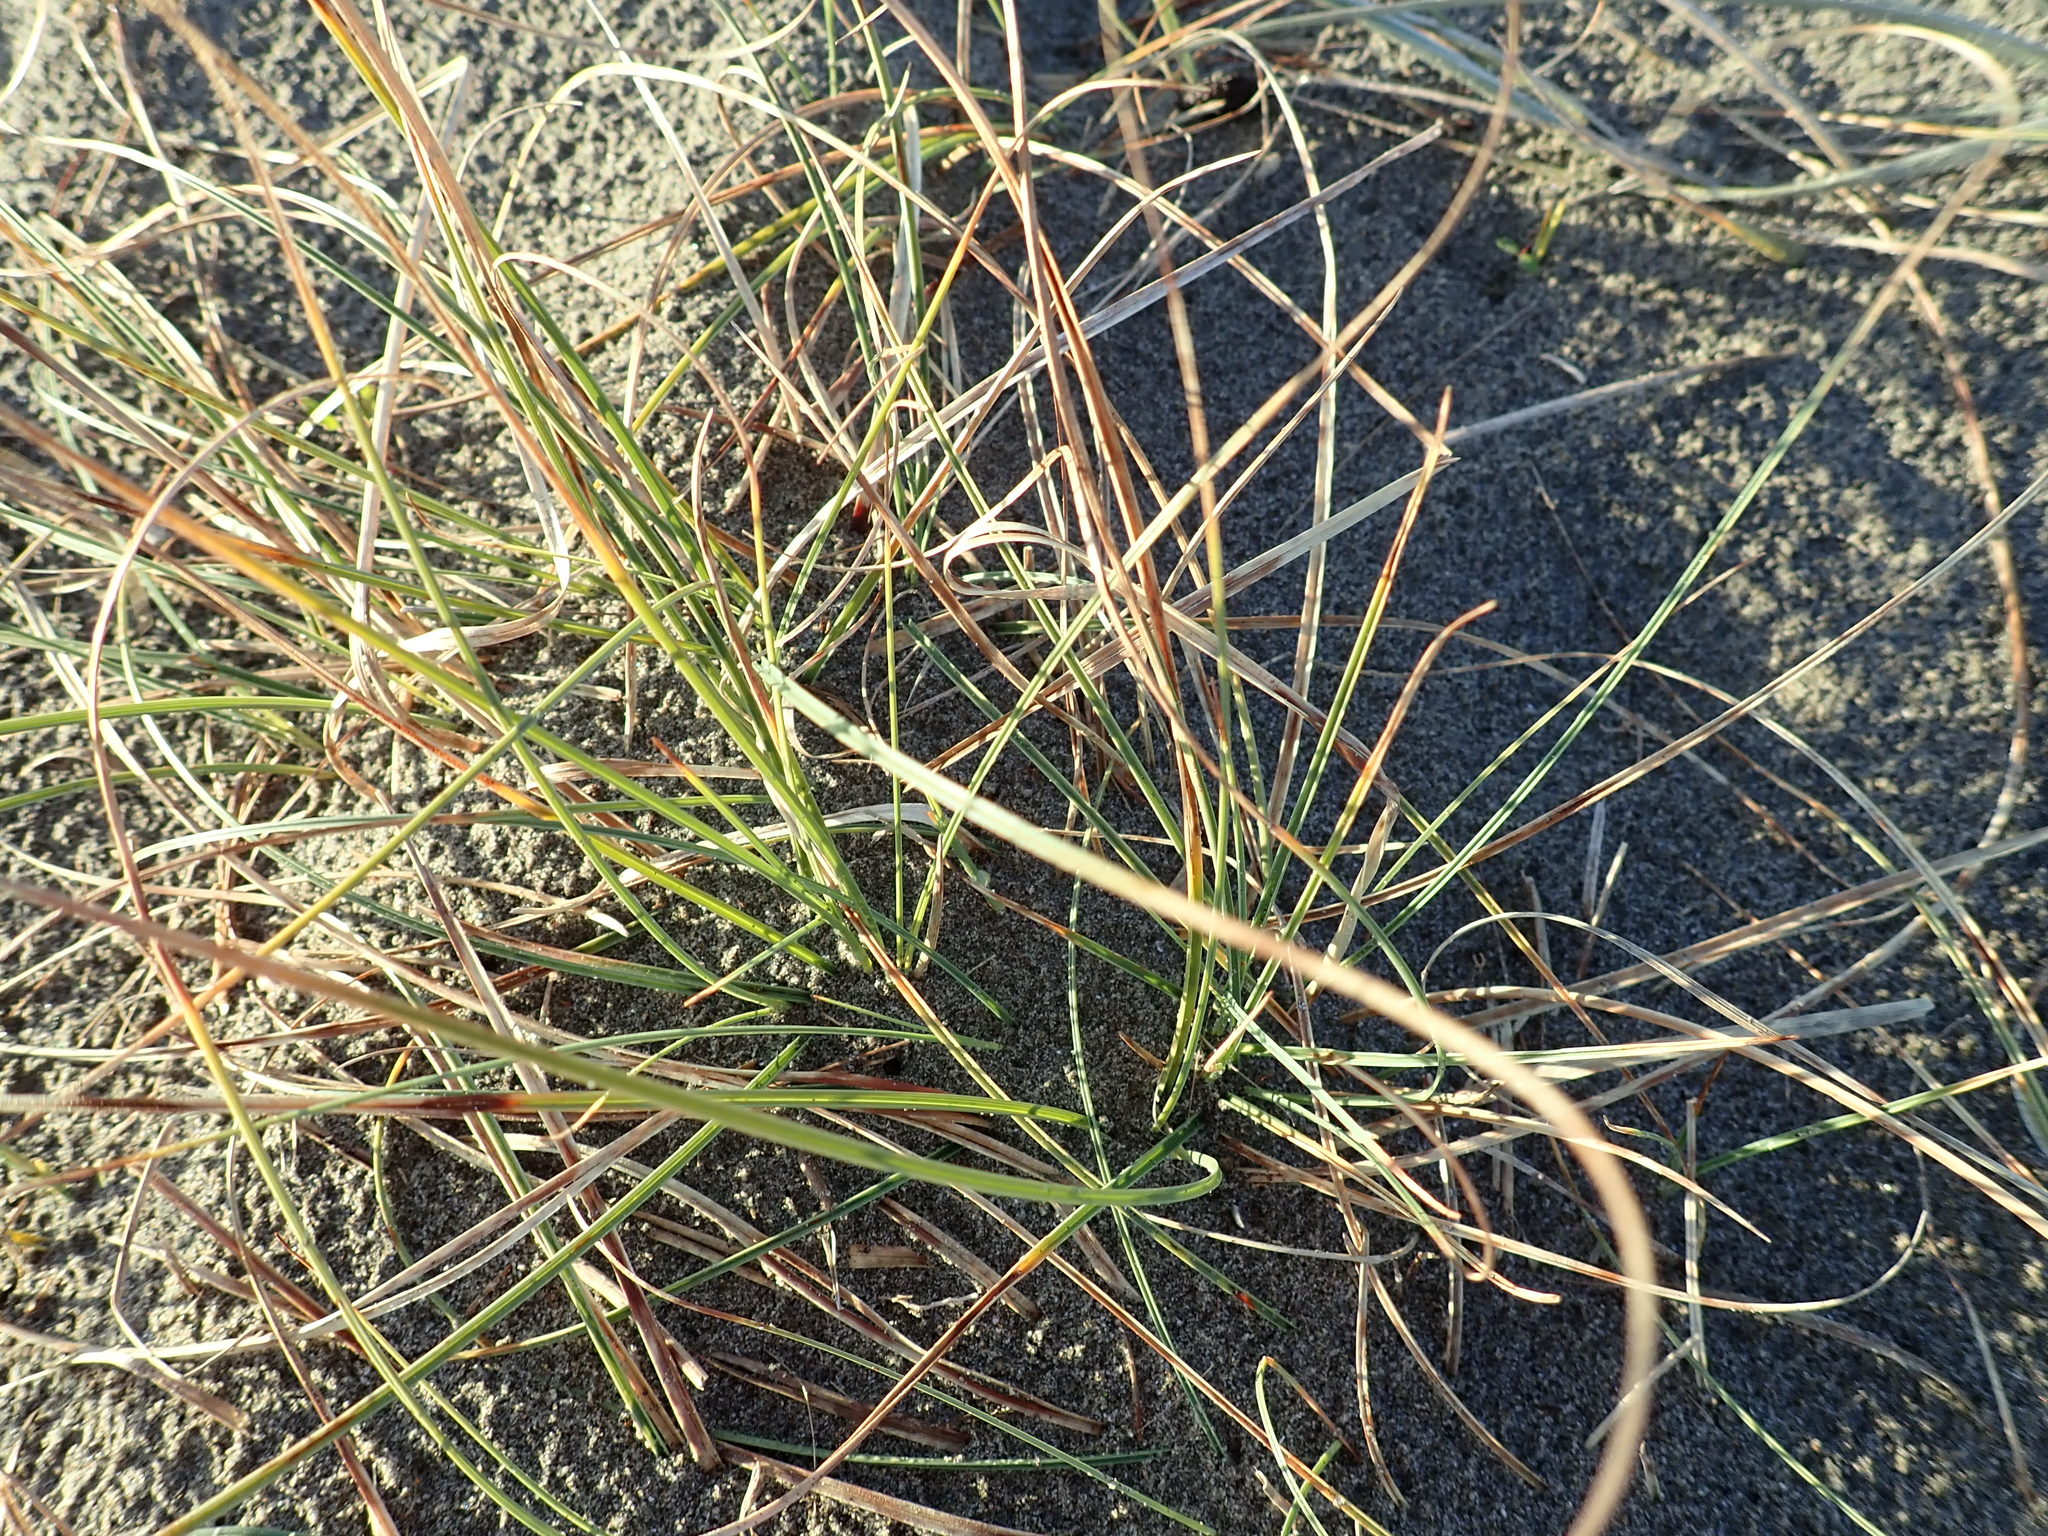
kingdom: Plantae
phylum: Tracheophyta
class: Liliopsida
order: Poales
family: Cyperaceae
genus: Carex
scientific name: Carex pumila
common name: Dwarf sedge
